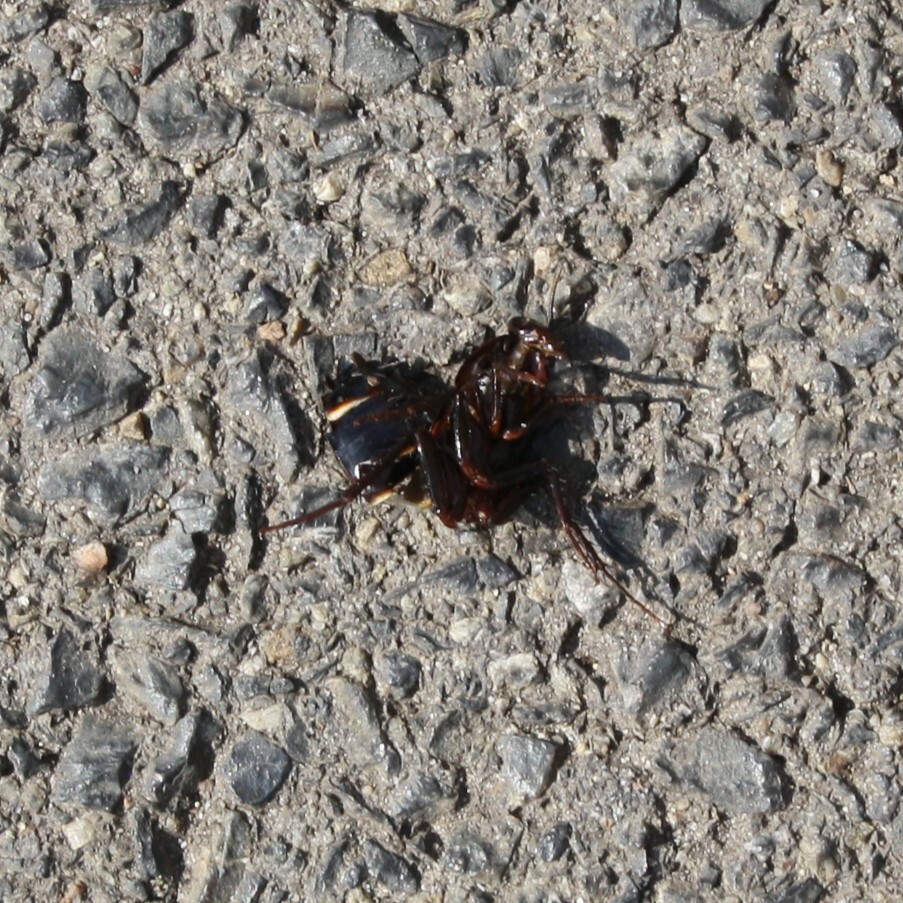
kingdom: Animalia
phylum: Arthropoda
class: Insecta
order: Blattodea
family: Blattidae
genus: Blatta
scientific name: Blatta orientalis
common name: Oriental cockroach
